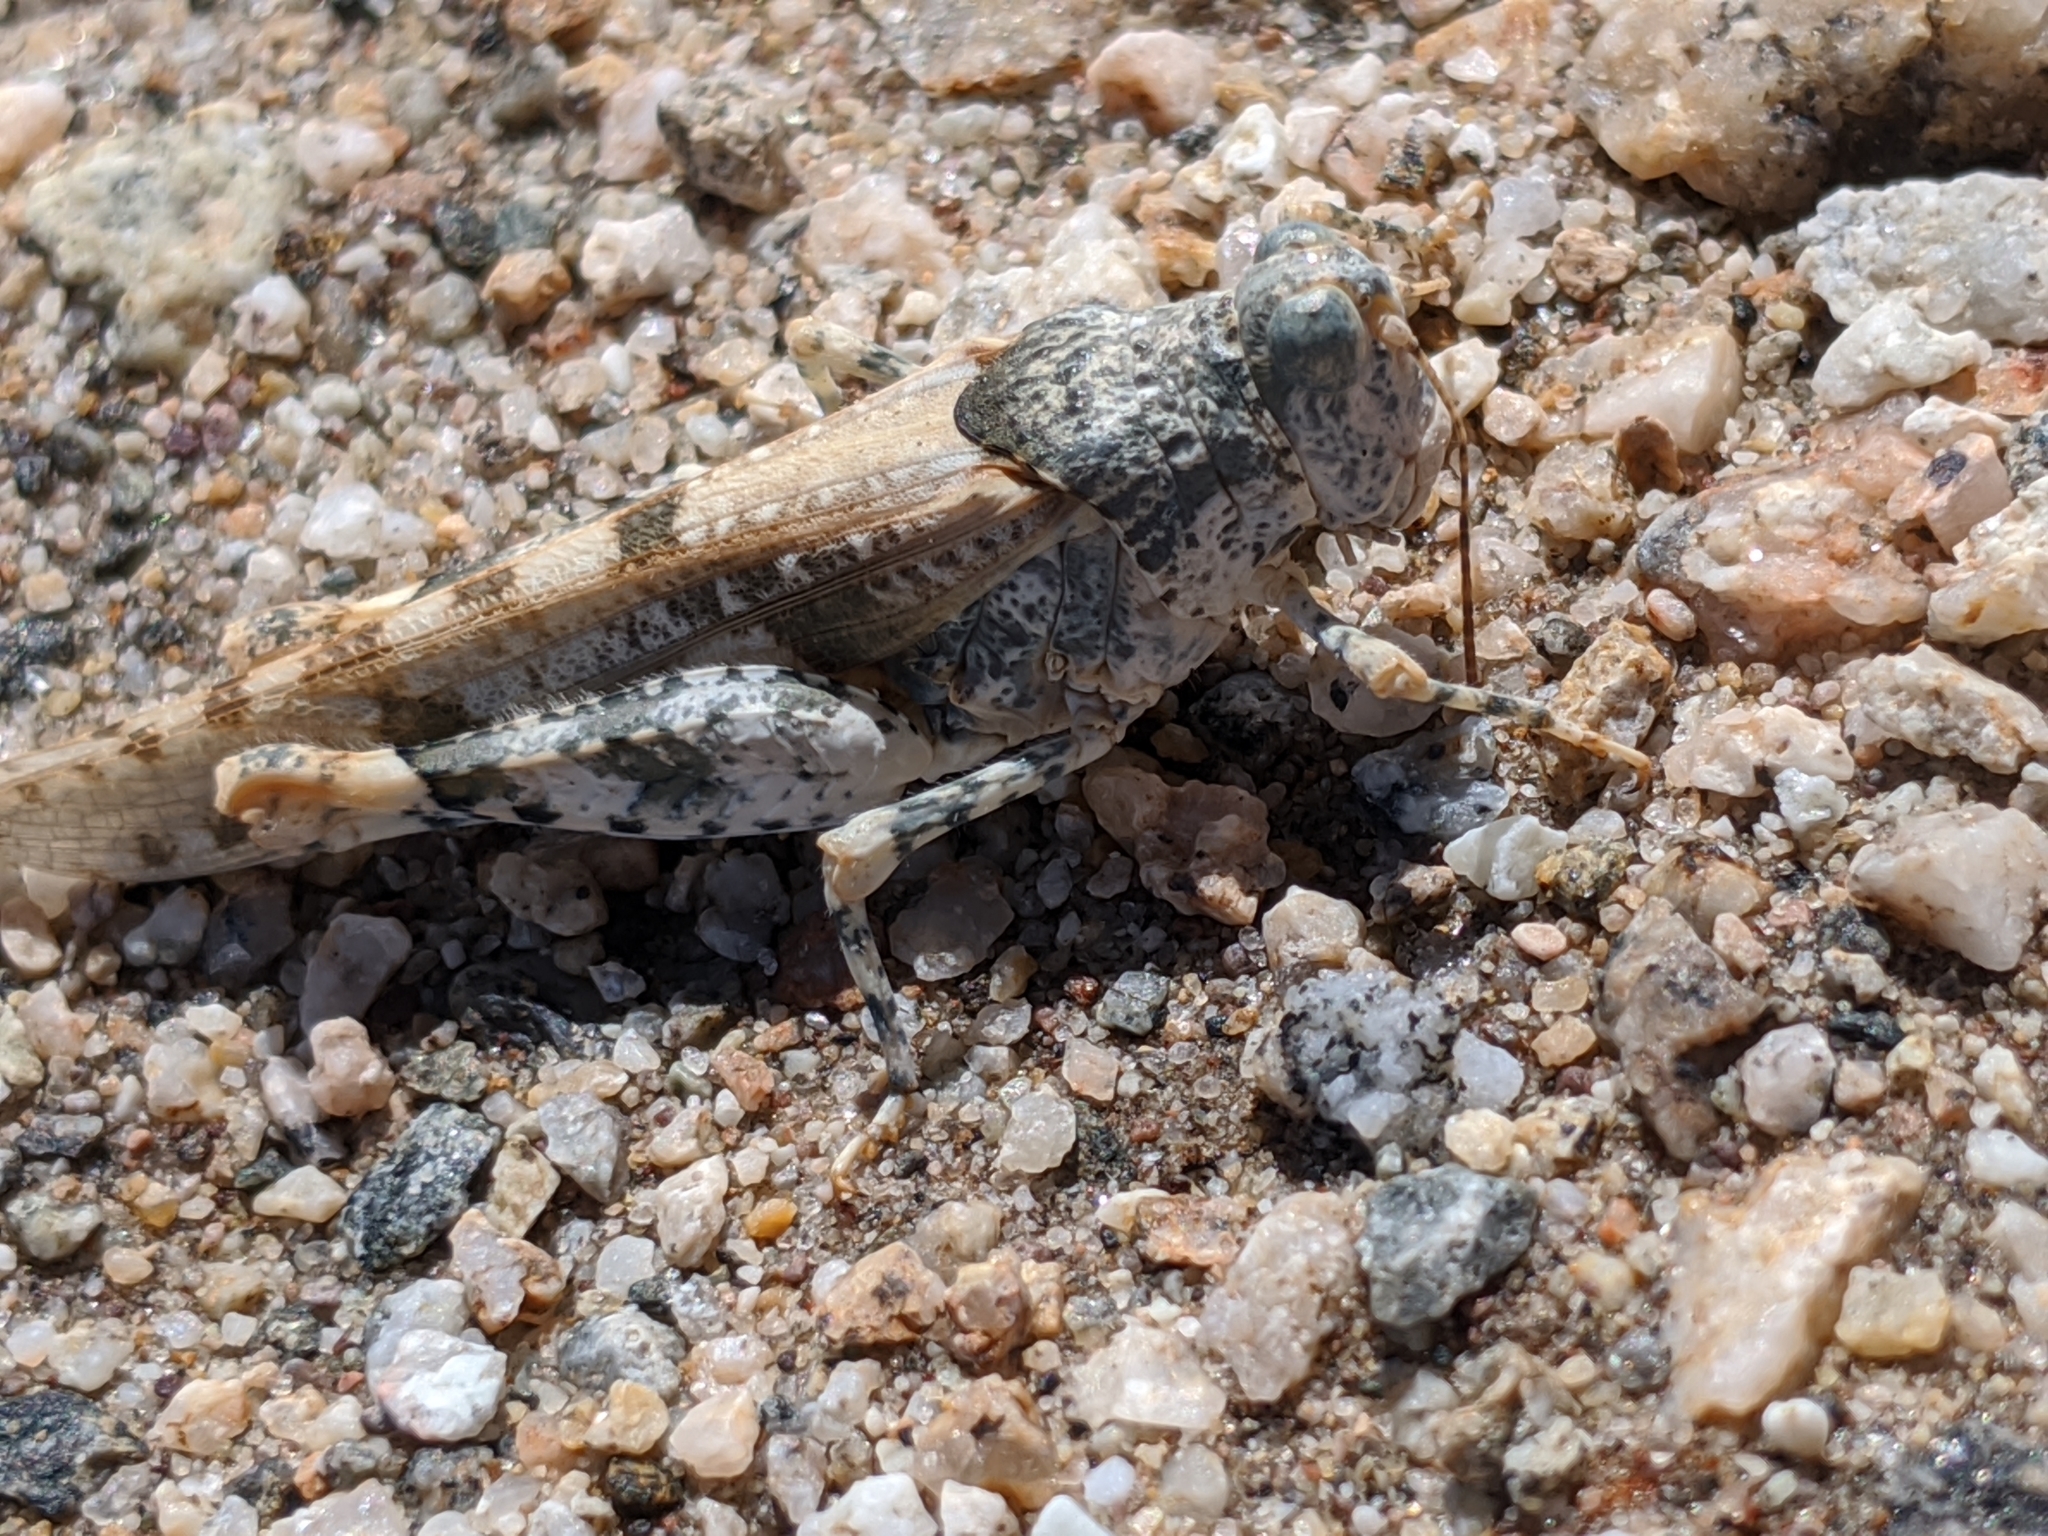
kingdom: Animalia
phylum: Arthropoda
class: Insecta
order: Orthoptera
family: Acrididae
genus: Cibolacris
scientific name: Cibolacris parviceps
